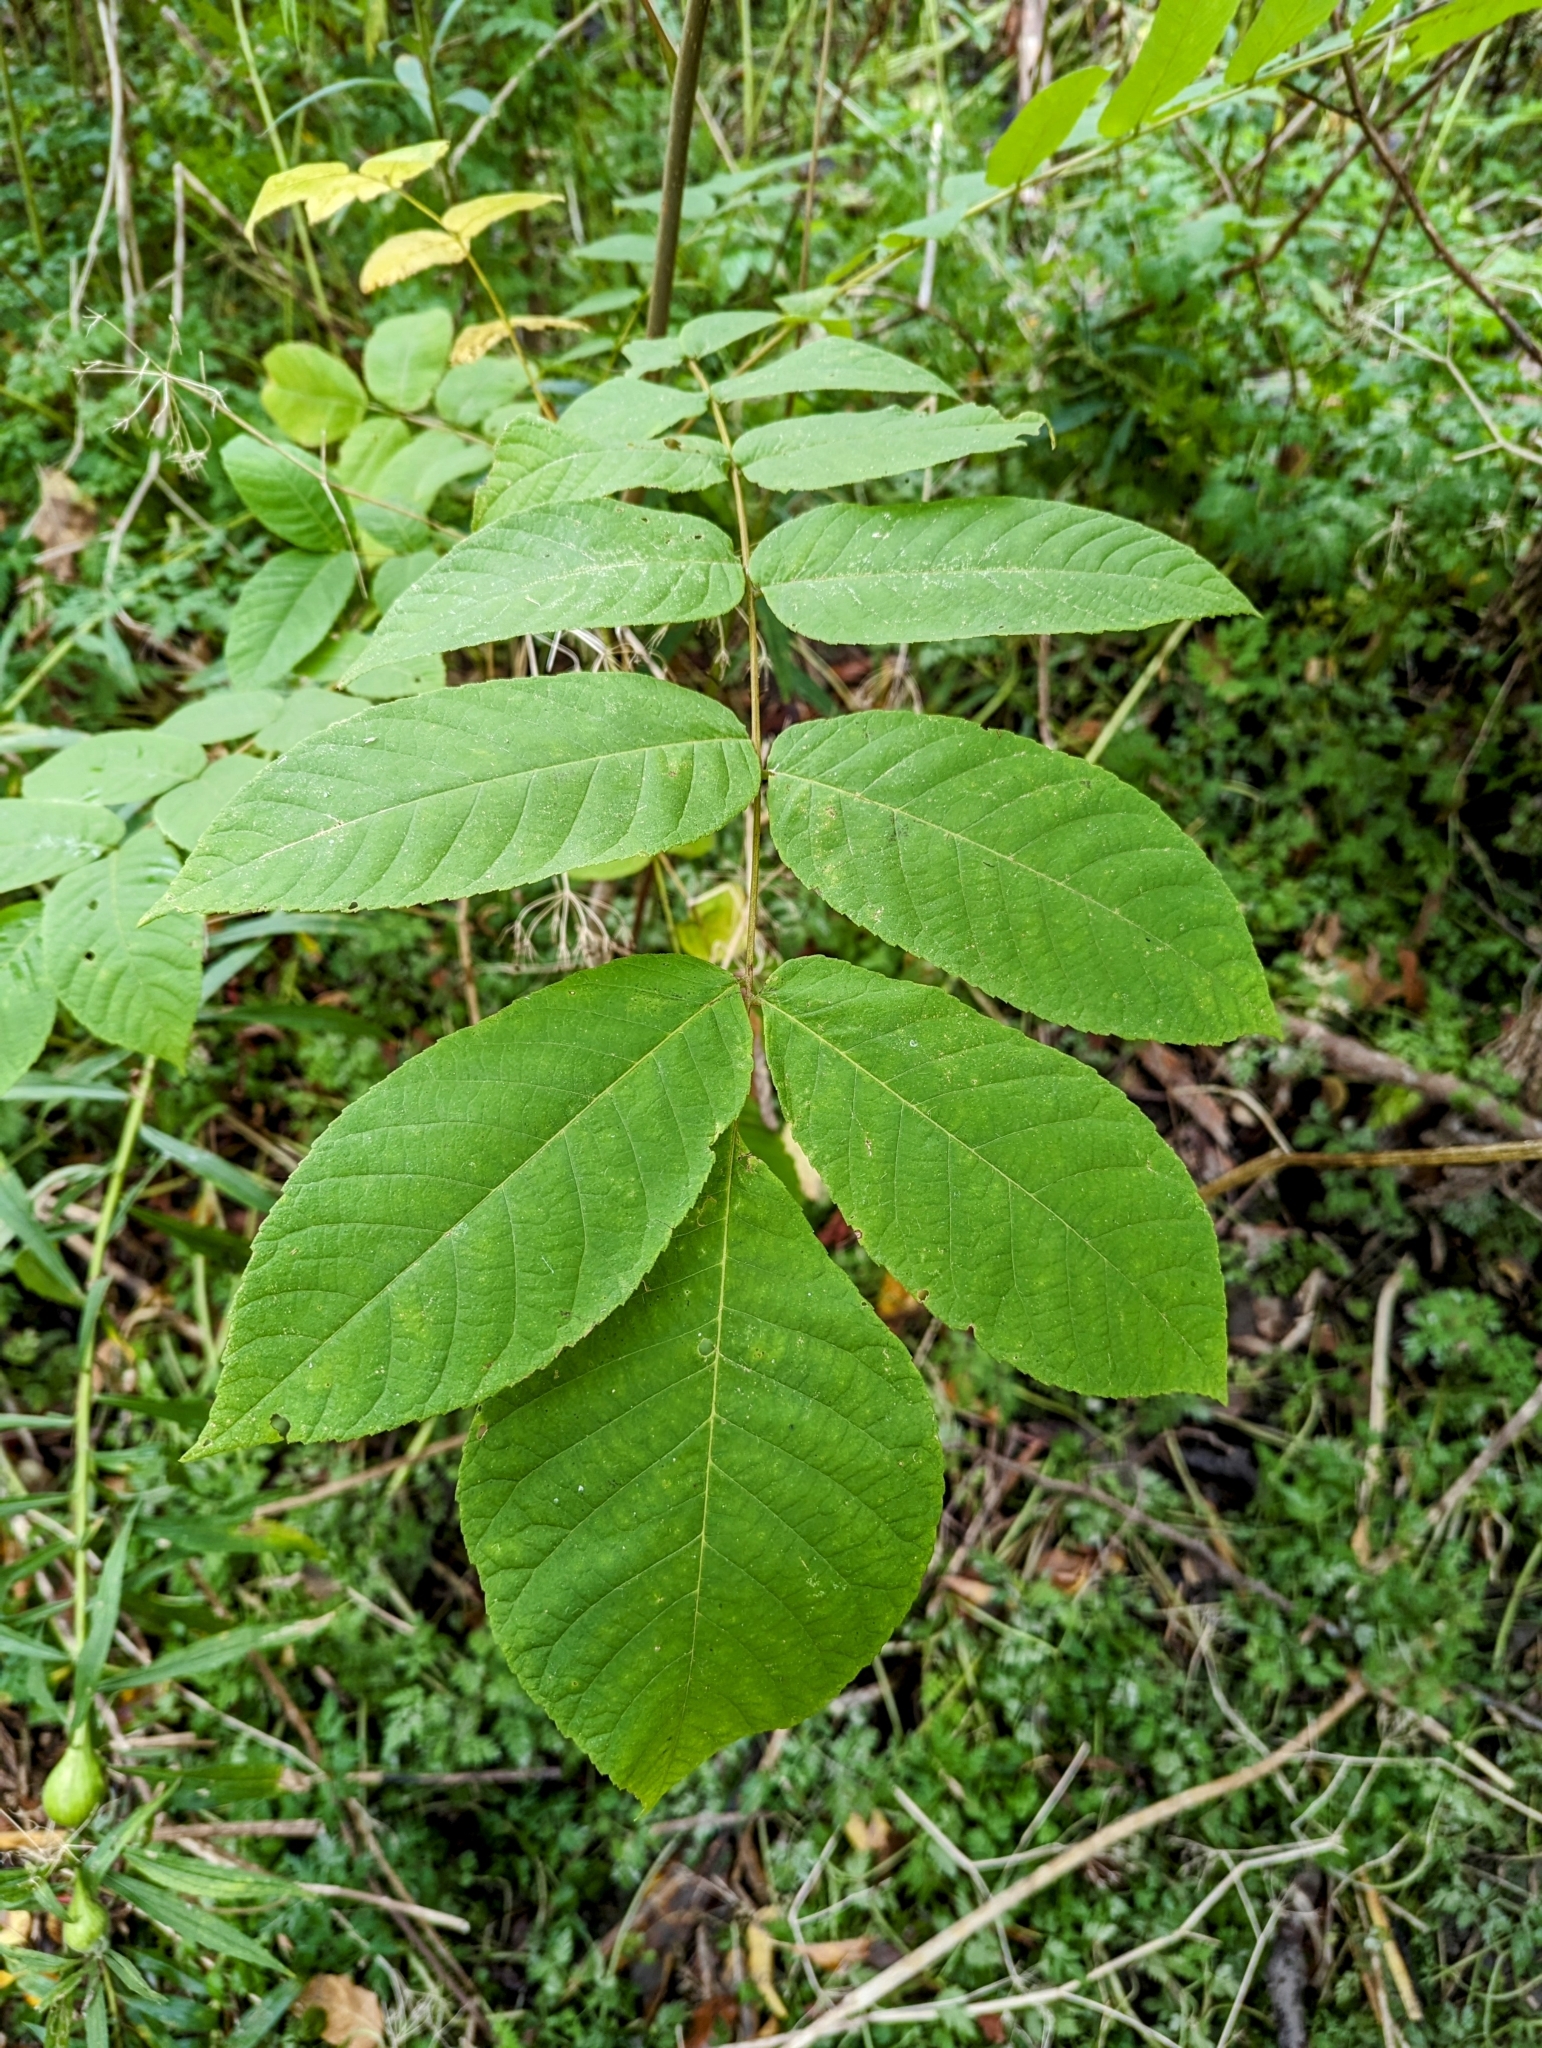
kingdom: Plantae
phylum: Tracheophyta
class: Magnoliopsida
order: Fagales
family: Juglandaceae
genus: Juglans
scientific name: Juglans cinerea
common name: Butternut
